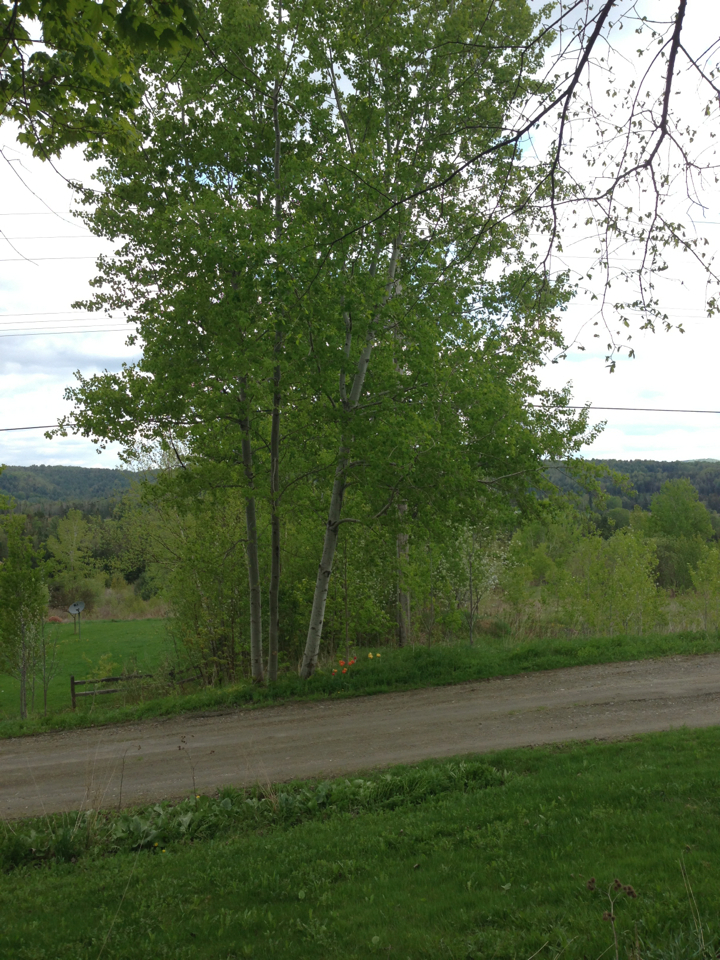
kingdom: Plantae
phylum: Tracheophyta
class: Magnoliopsida
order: Malpighiales
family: Salicaceae
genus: Populus
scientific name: Populus tremuloides
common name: Quaking aspen
